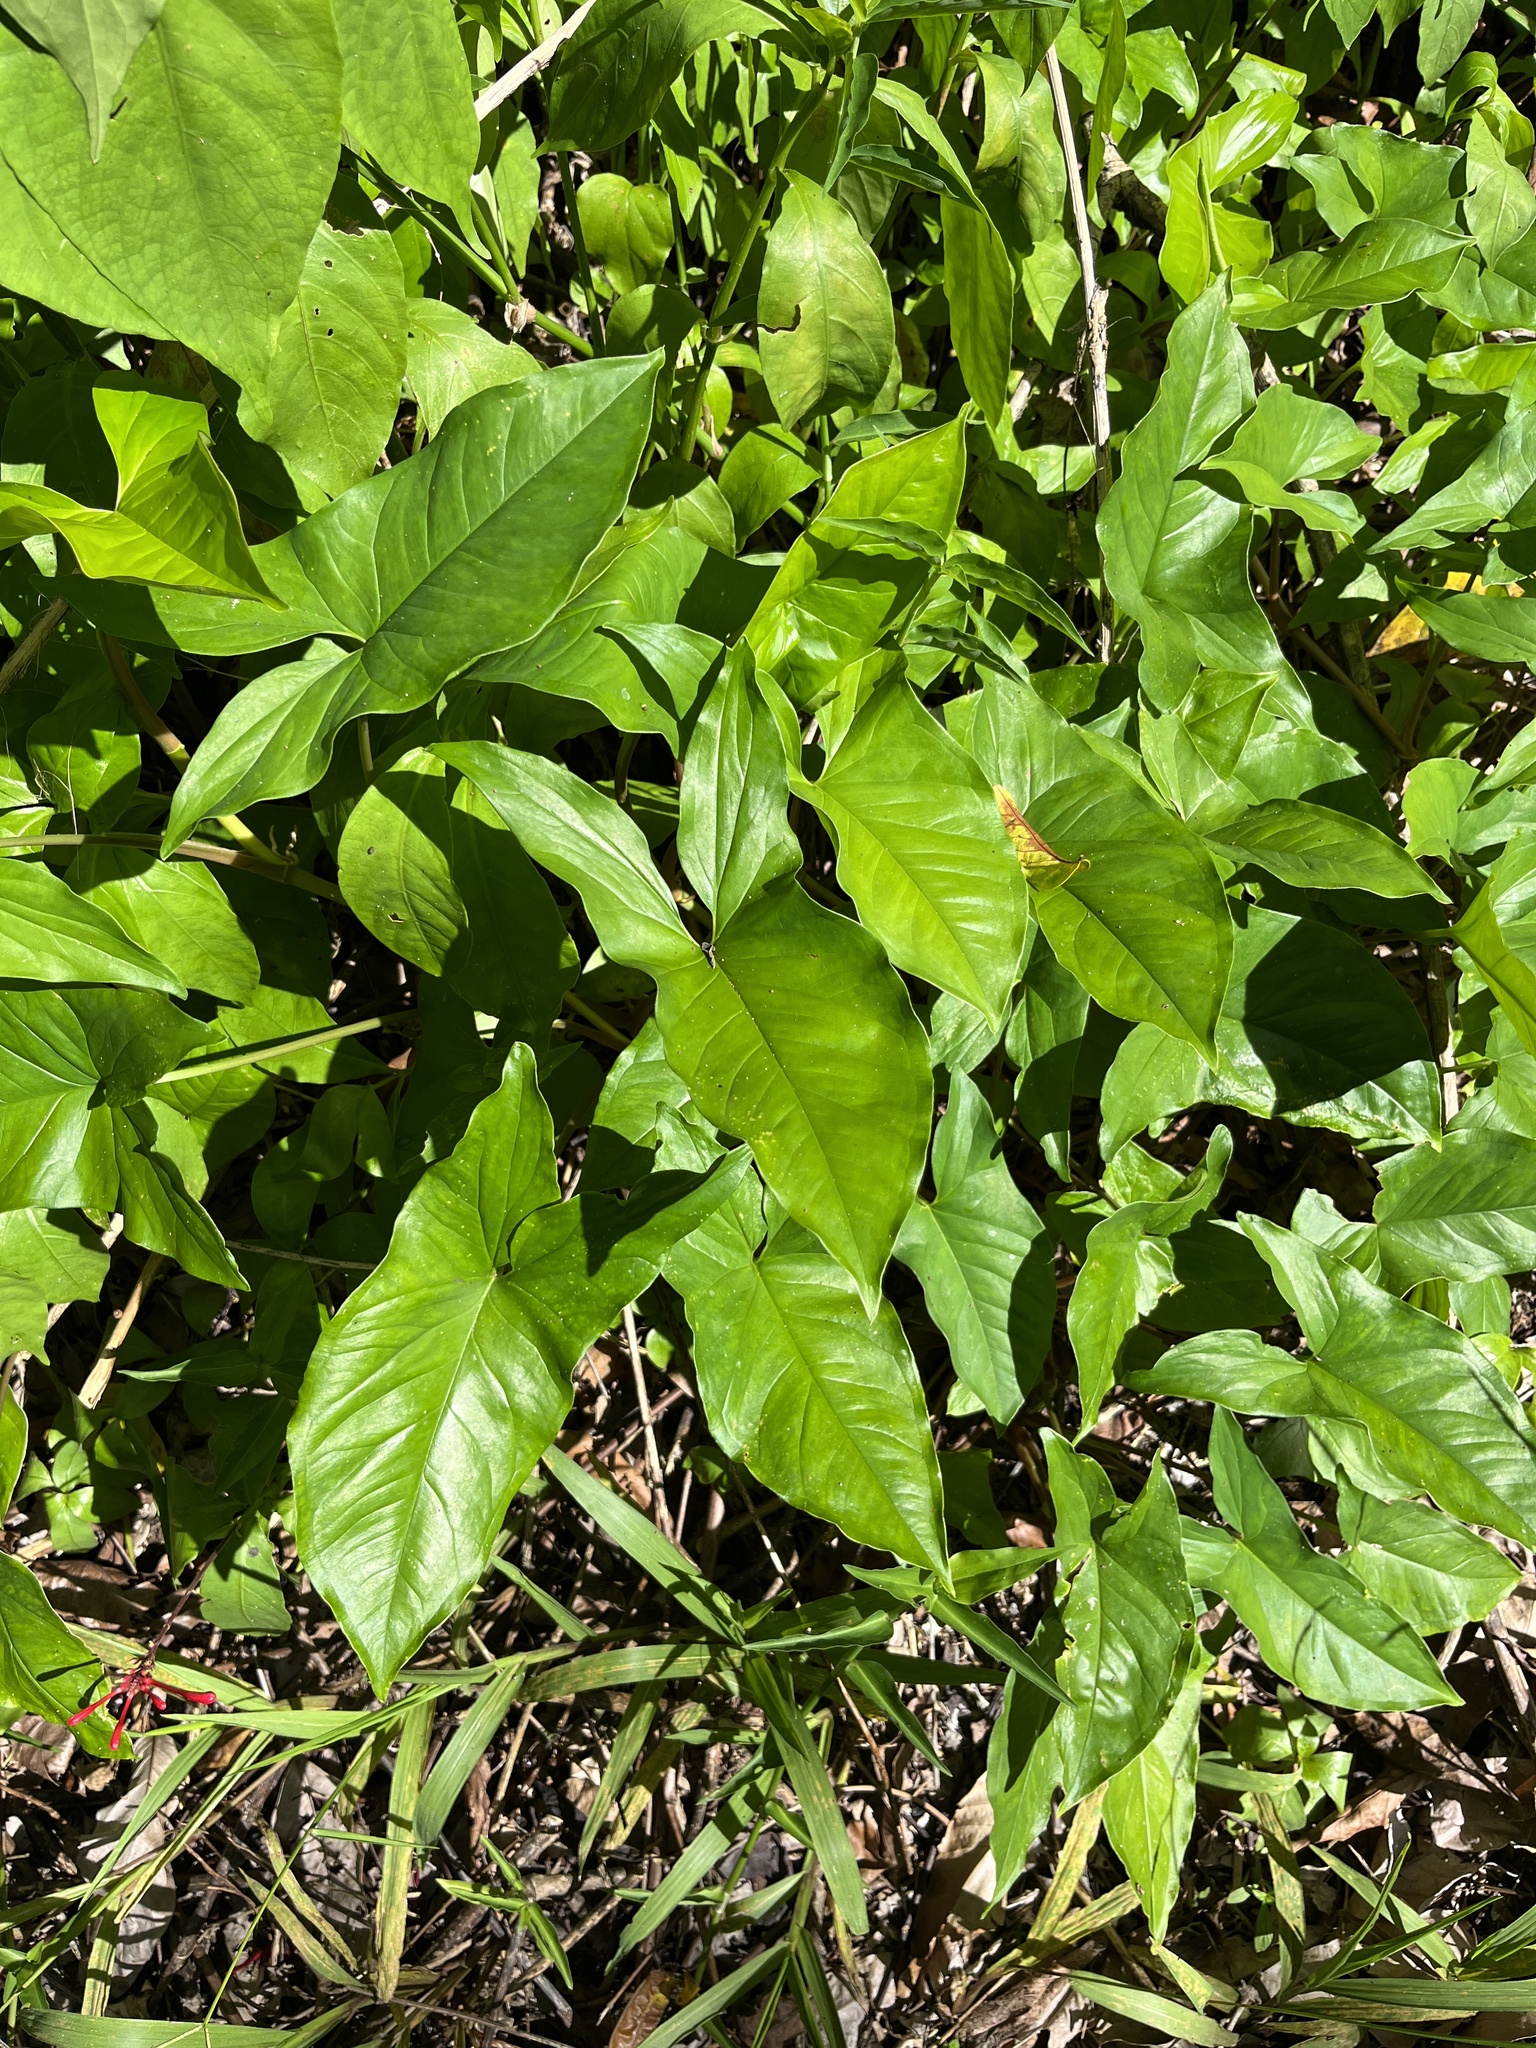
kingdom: Plantae
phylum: Tracheophyta
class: Liliopsida
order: Alismatales
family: Araceae
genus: Syngonium
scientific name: Syngonium podophyllum
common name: American evergreen
